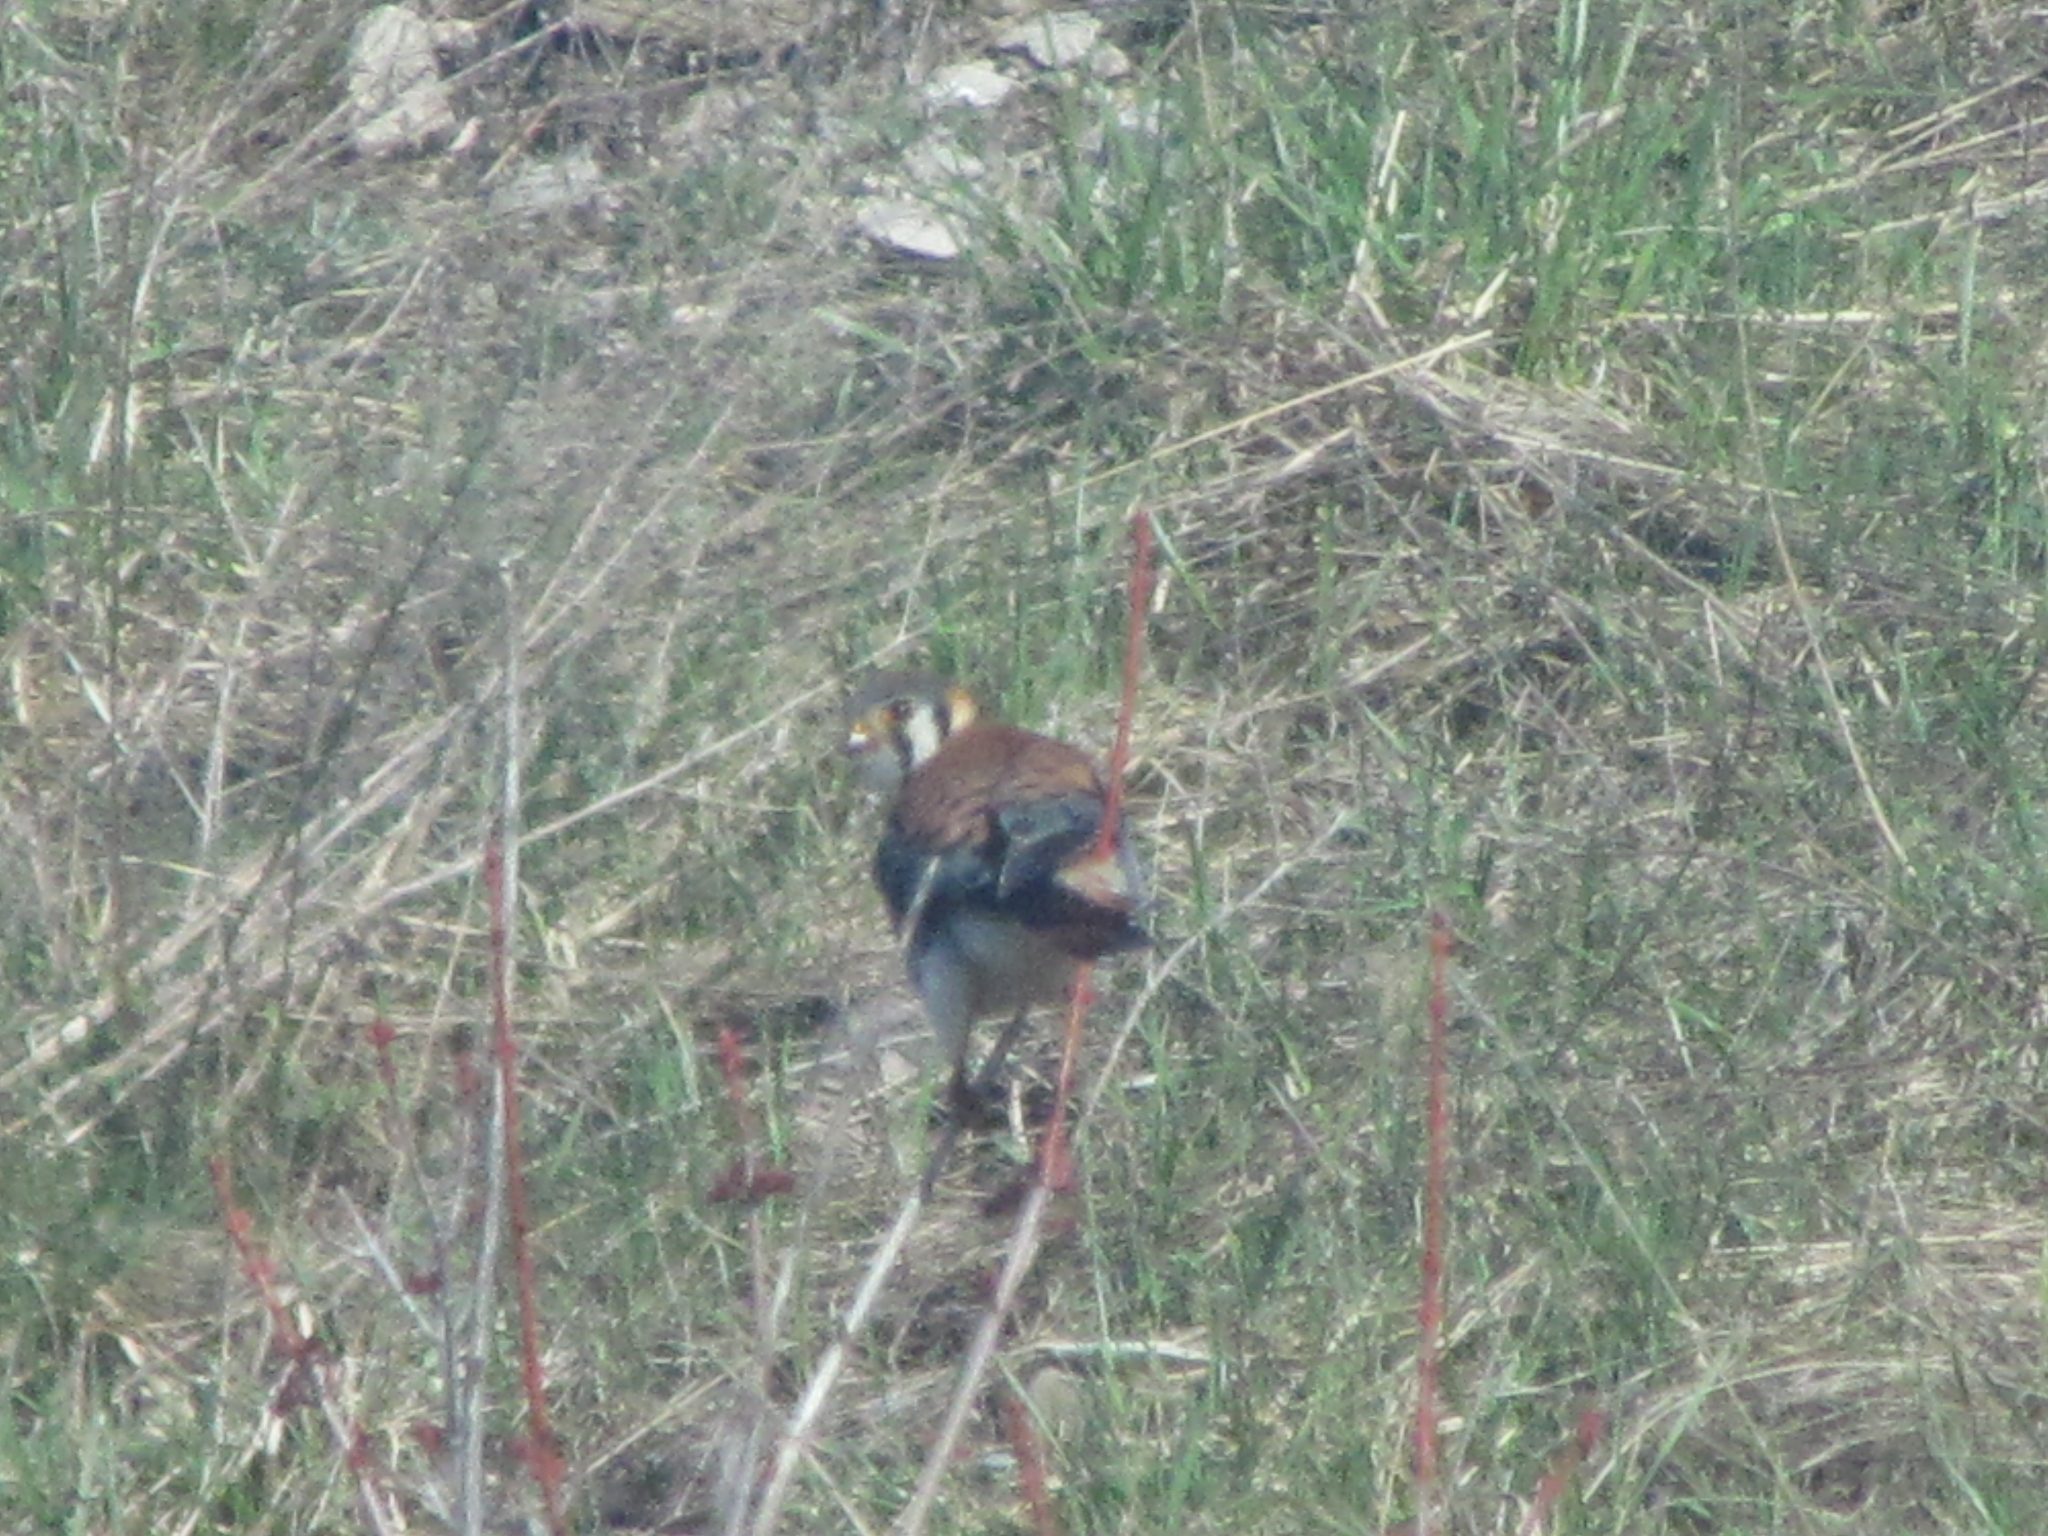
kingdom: Animalia
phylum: Chordata
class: Aves
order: Falconiformes
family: Falconidae
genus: Falco
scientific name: Falco sparverius
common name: American kestrel
